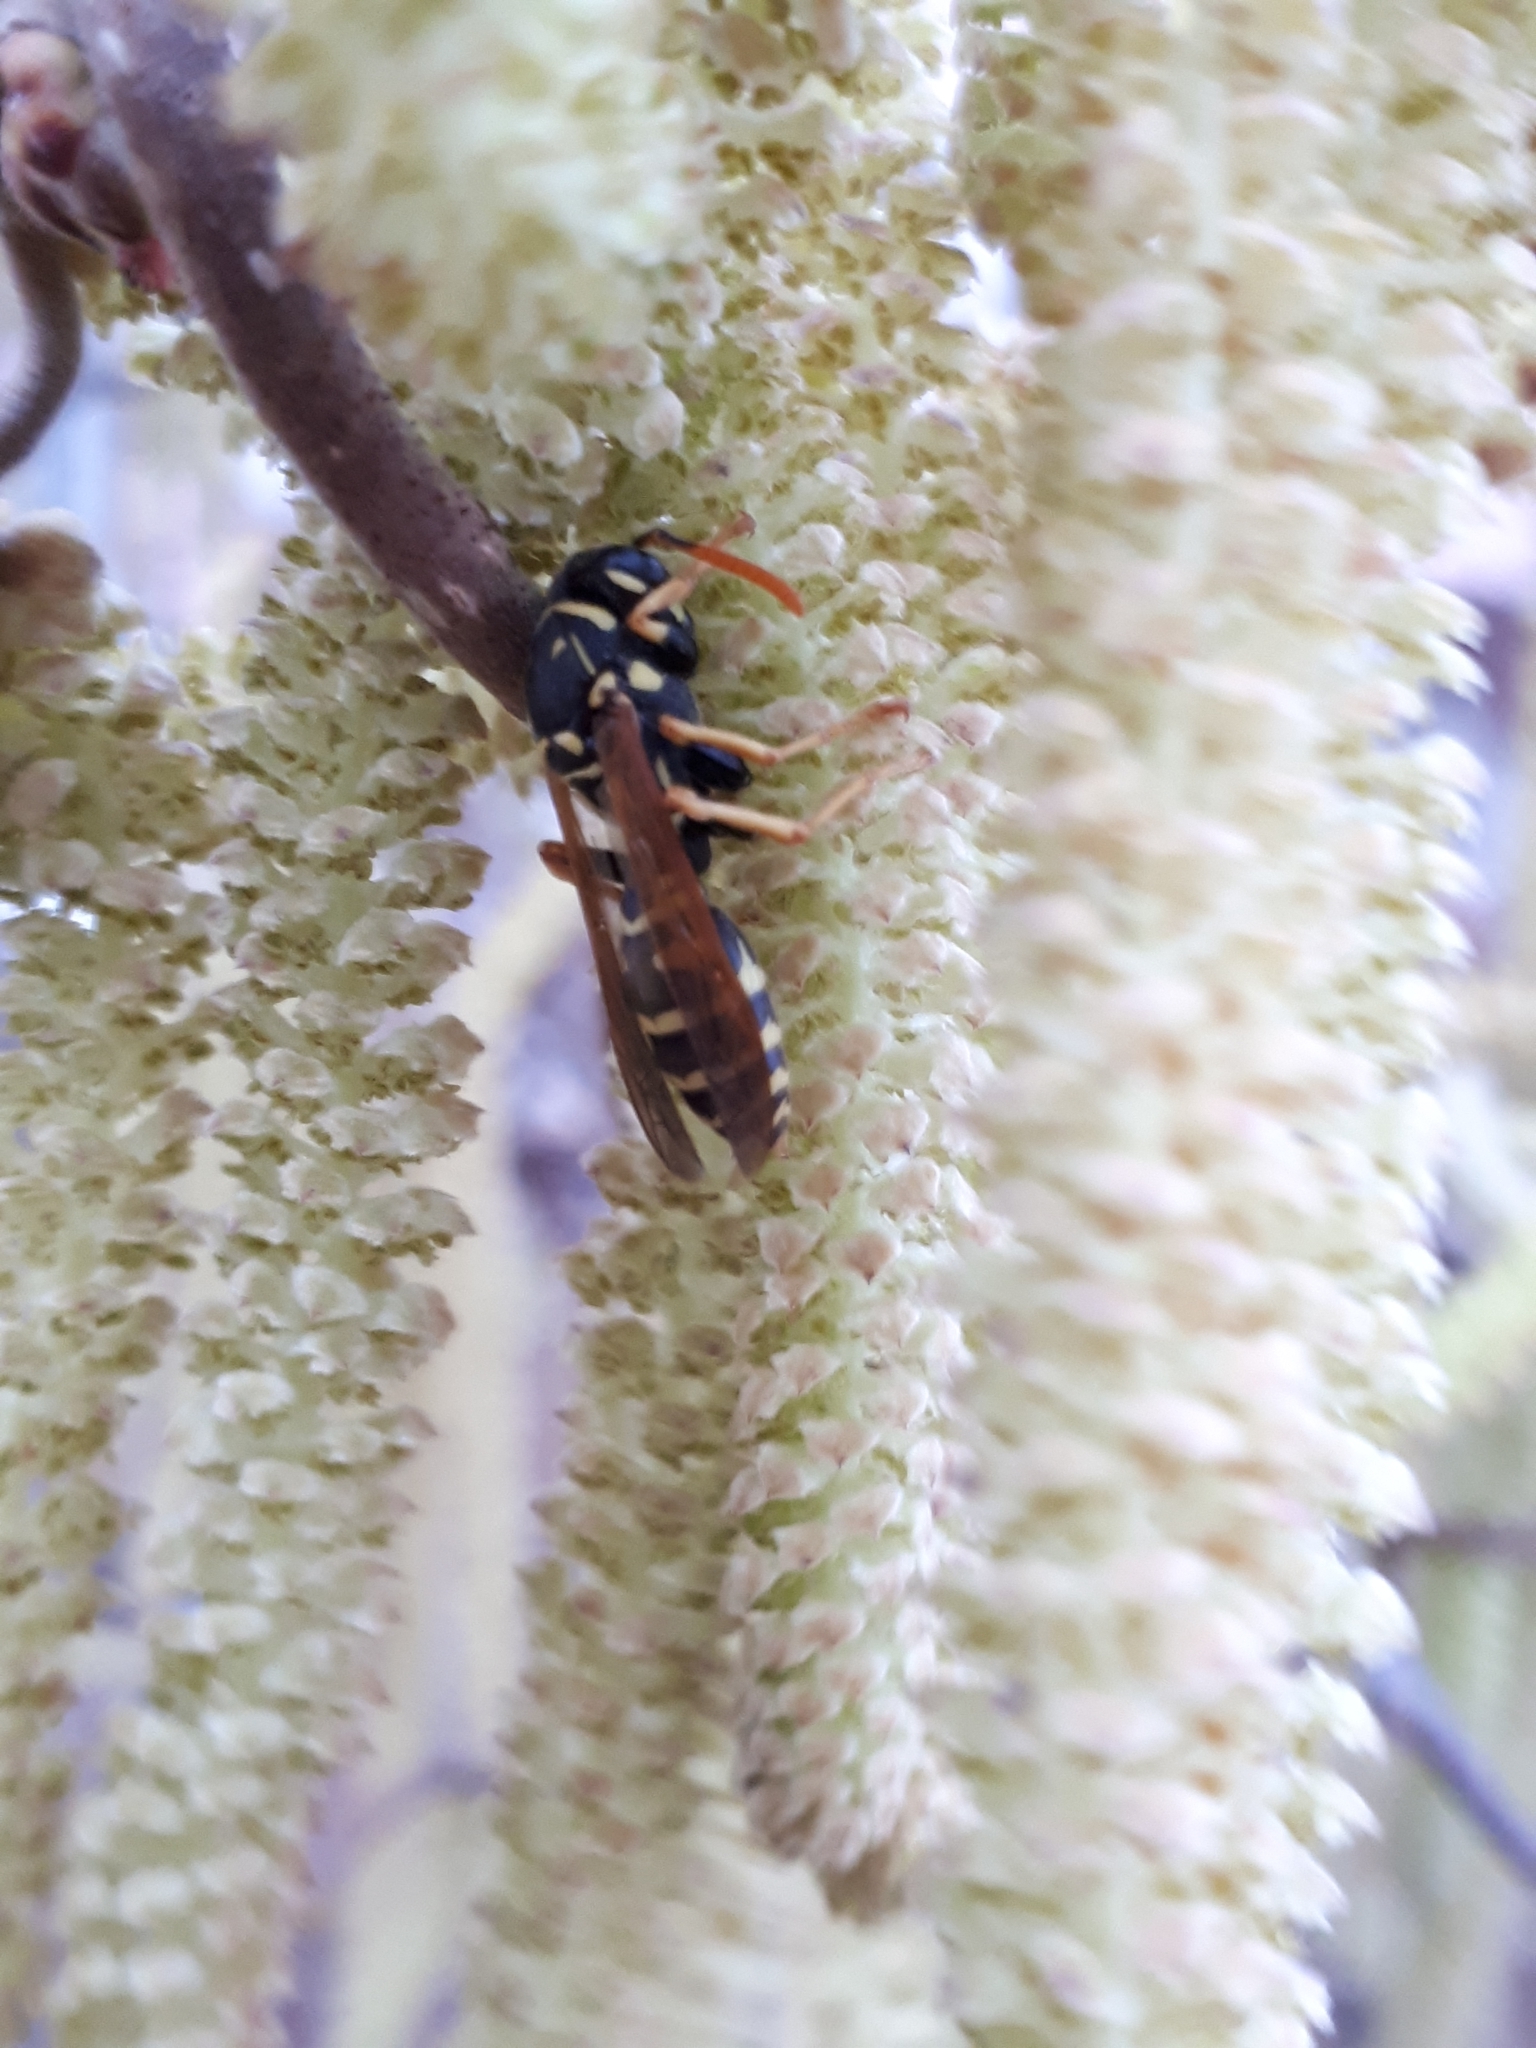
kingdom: Animalia
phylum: Arthropoda
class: Insecta
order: Hymenoptera
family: Eumenidae
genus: Polistes
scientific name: Polistes dominula
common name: Paper wasp
